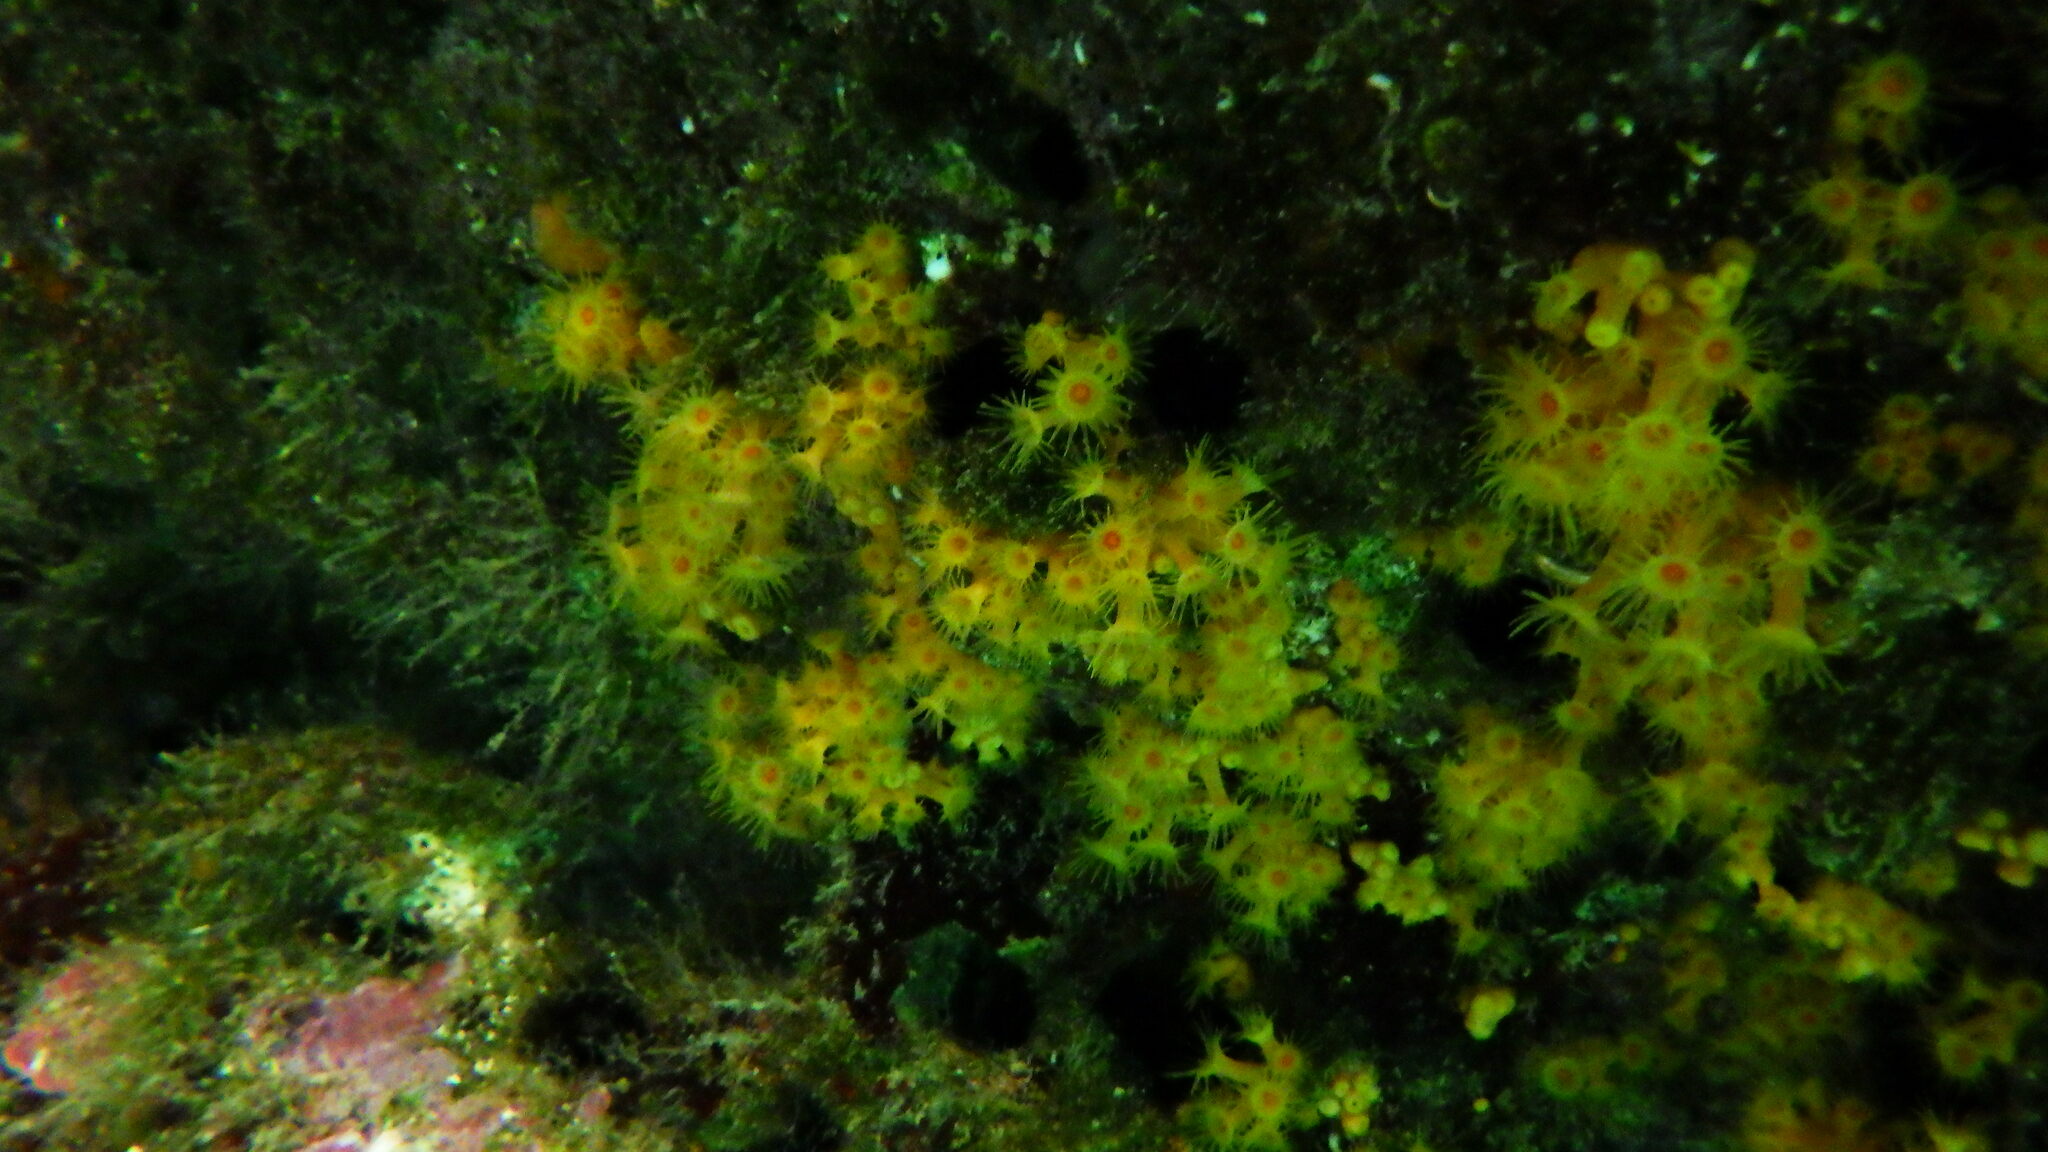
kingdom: Animalia
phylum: Cnidaria
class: Anthozoa
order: Zoantharia
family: Parazoanthidae
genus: Parazoanthus
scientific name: Parazoanthus axinellae
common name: Yellow cluster anemone
